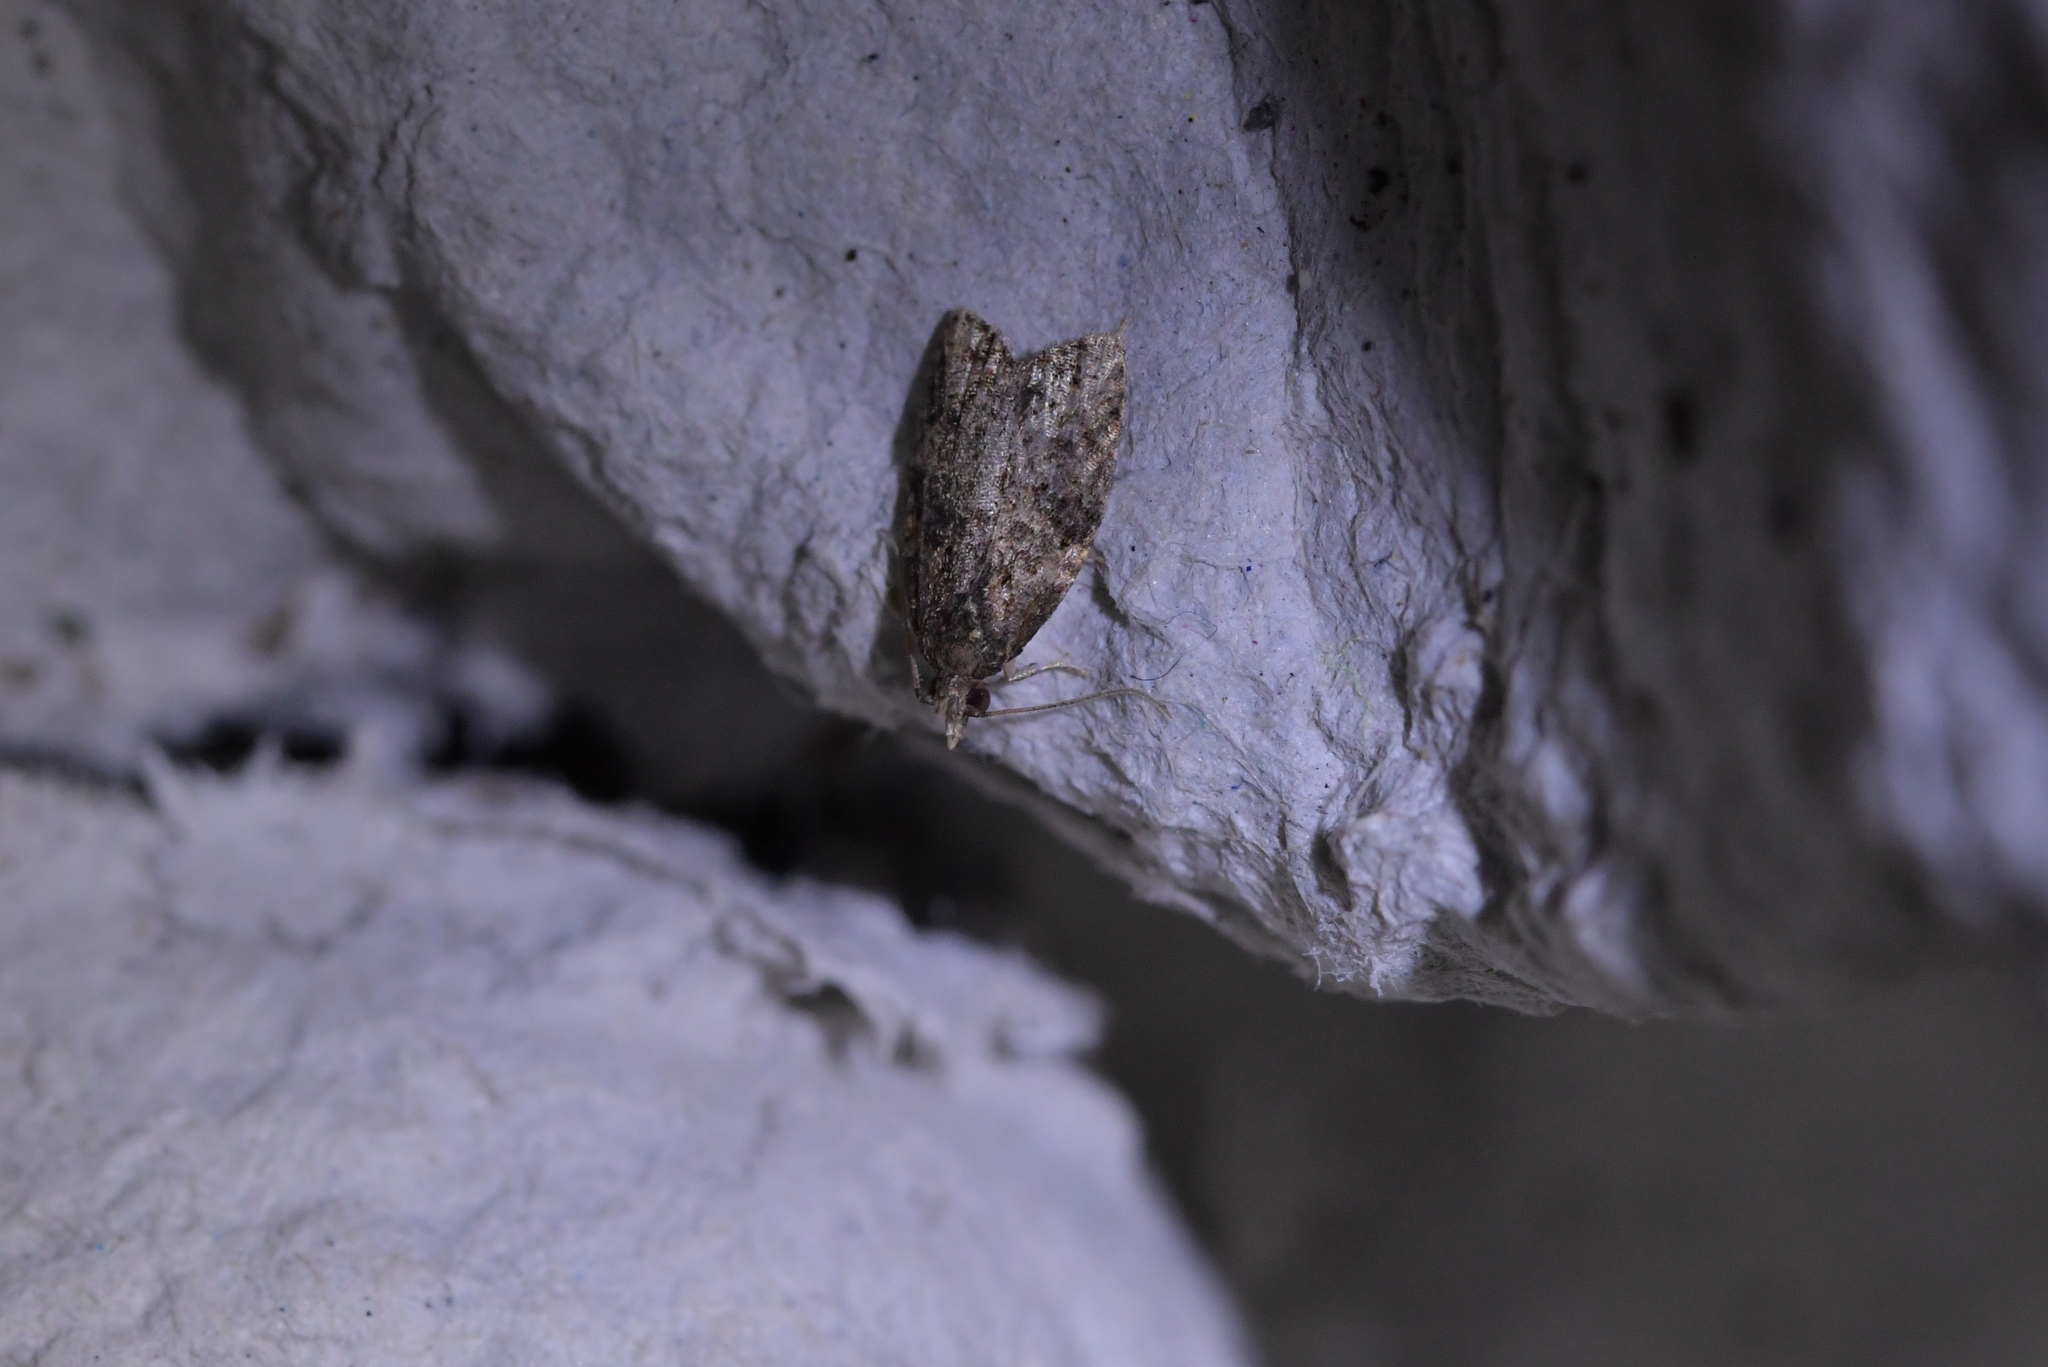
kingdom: Animalia
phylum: Arthropoda
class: Insecta
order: Lepidoptera
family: Tortricidae
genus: Capua
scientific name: Capua intractana
